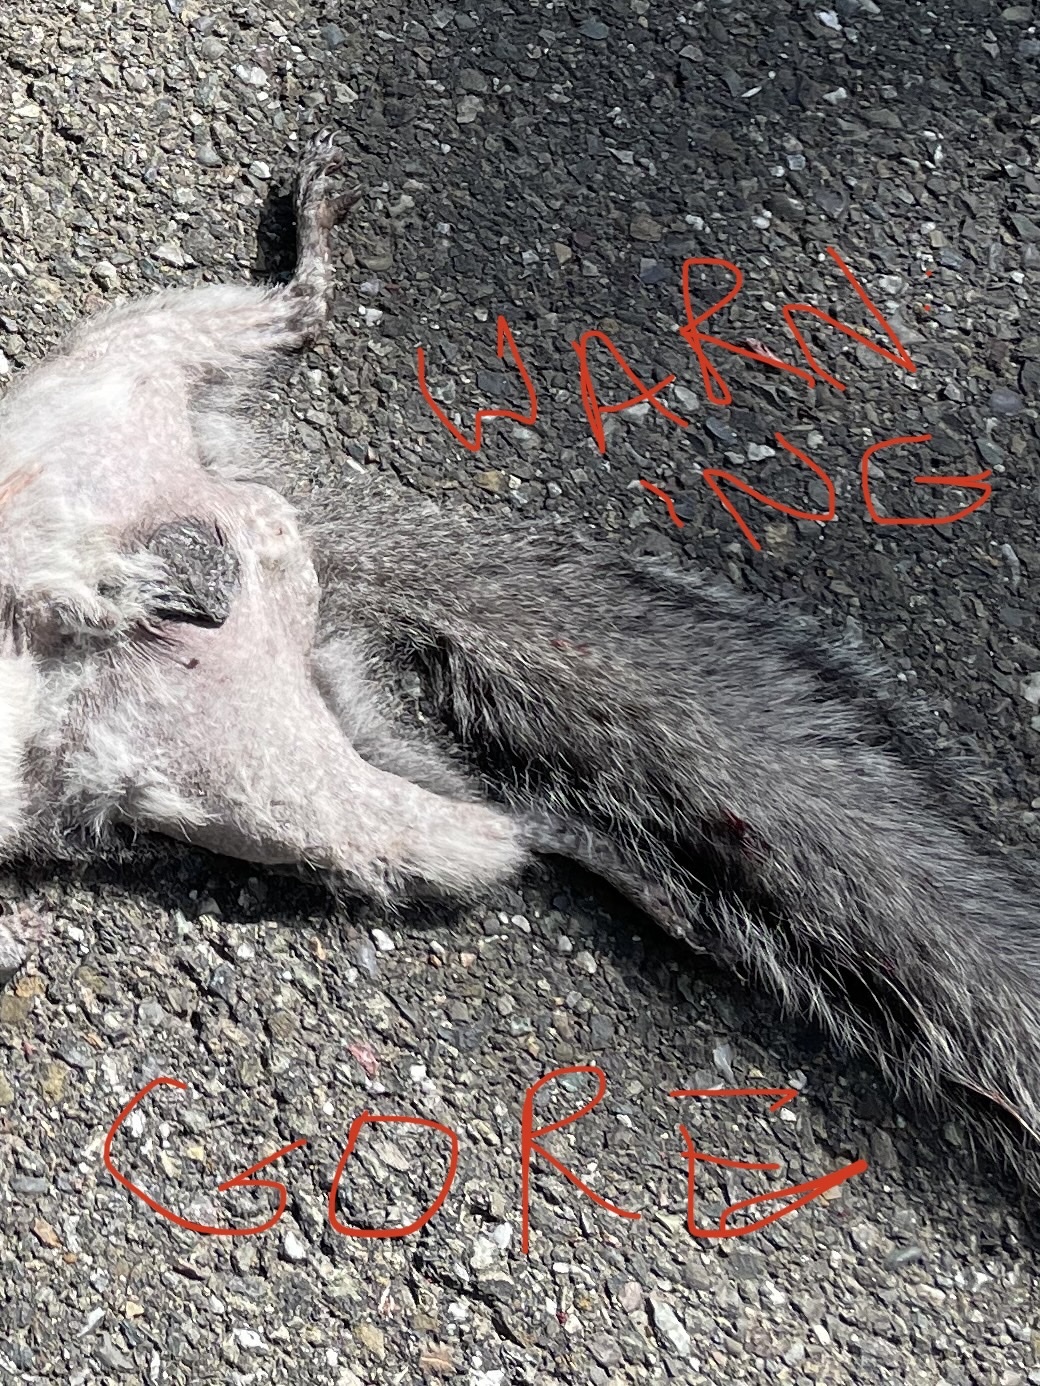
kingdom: Animalia
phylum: Chordata
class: Mammalia
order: Rodentia
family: Sciuridae
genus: Sciurus
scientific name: Sciurus griseus
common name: Western gray squirrel
